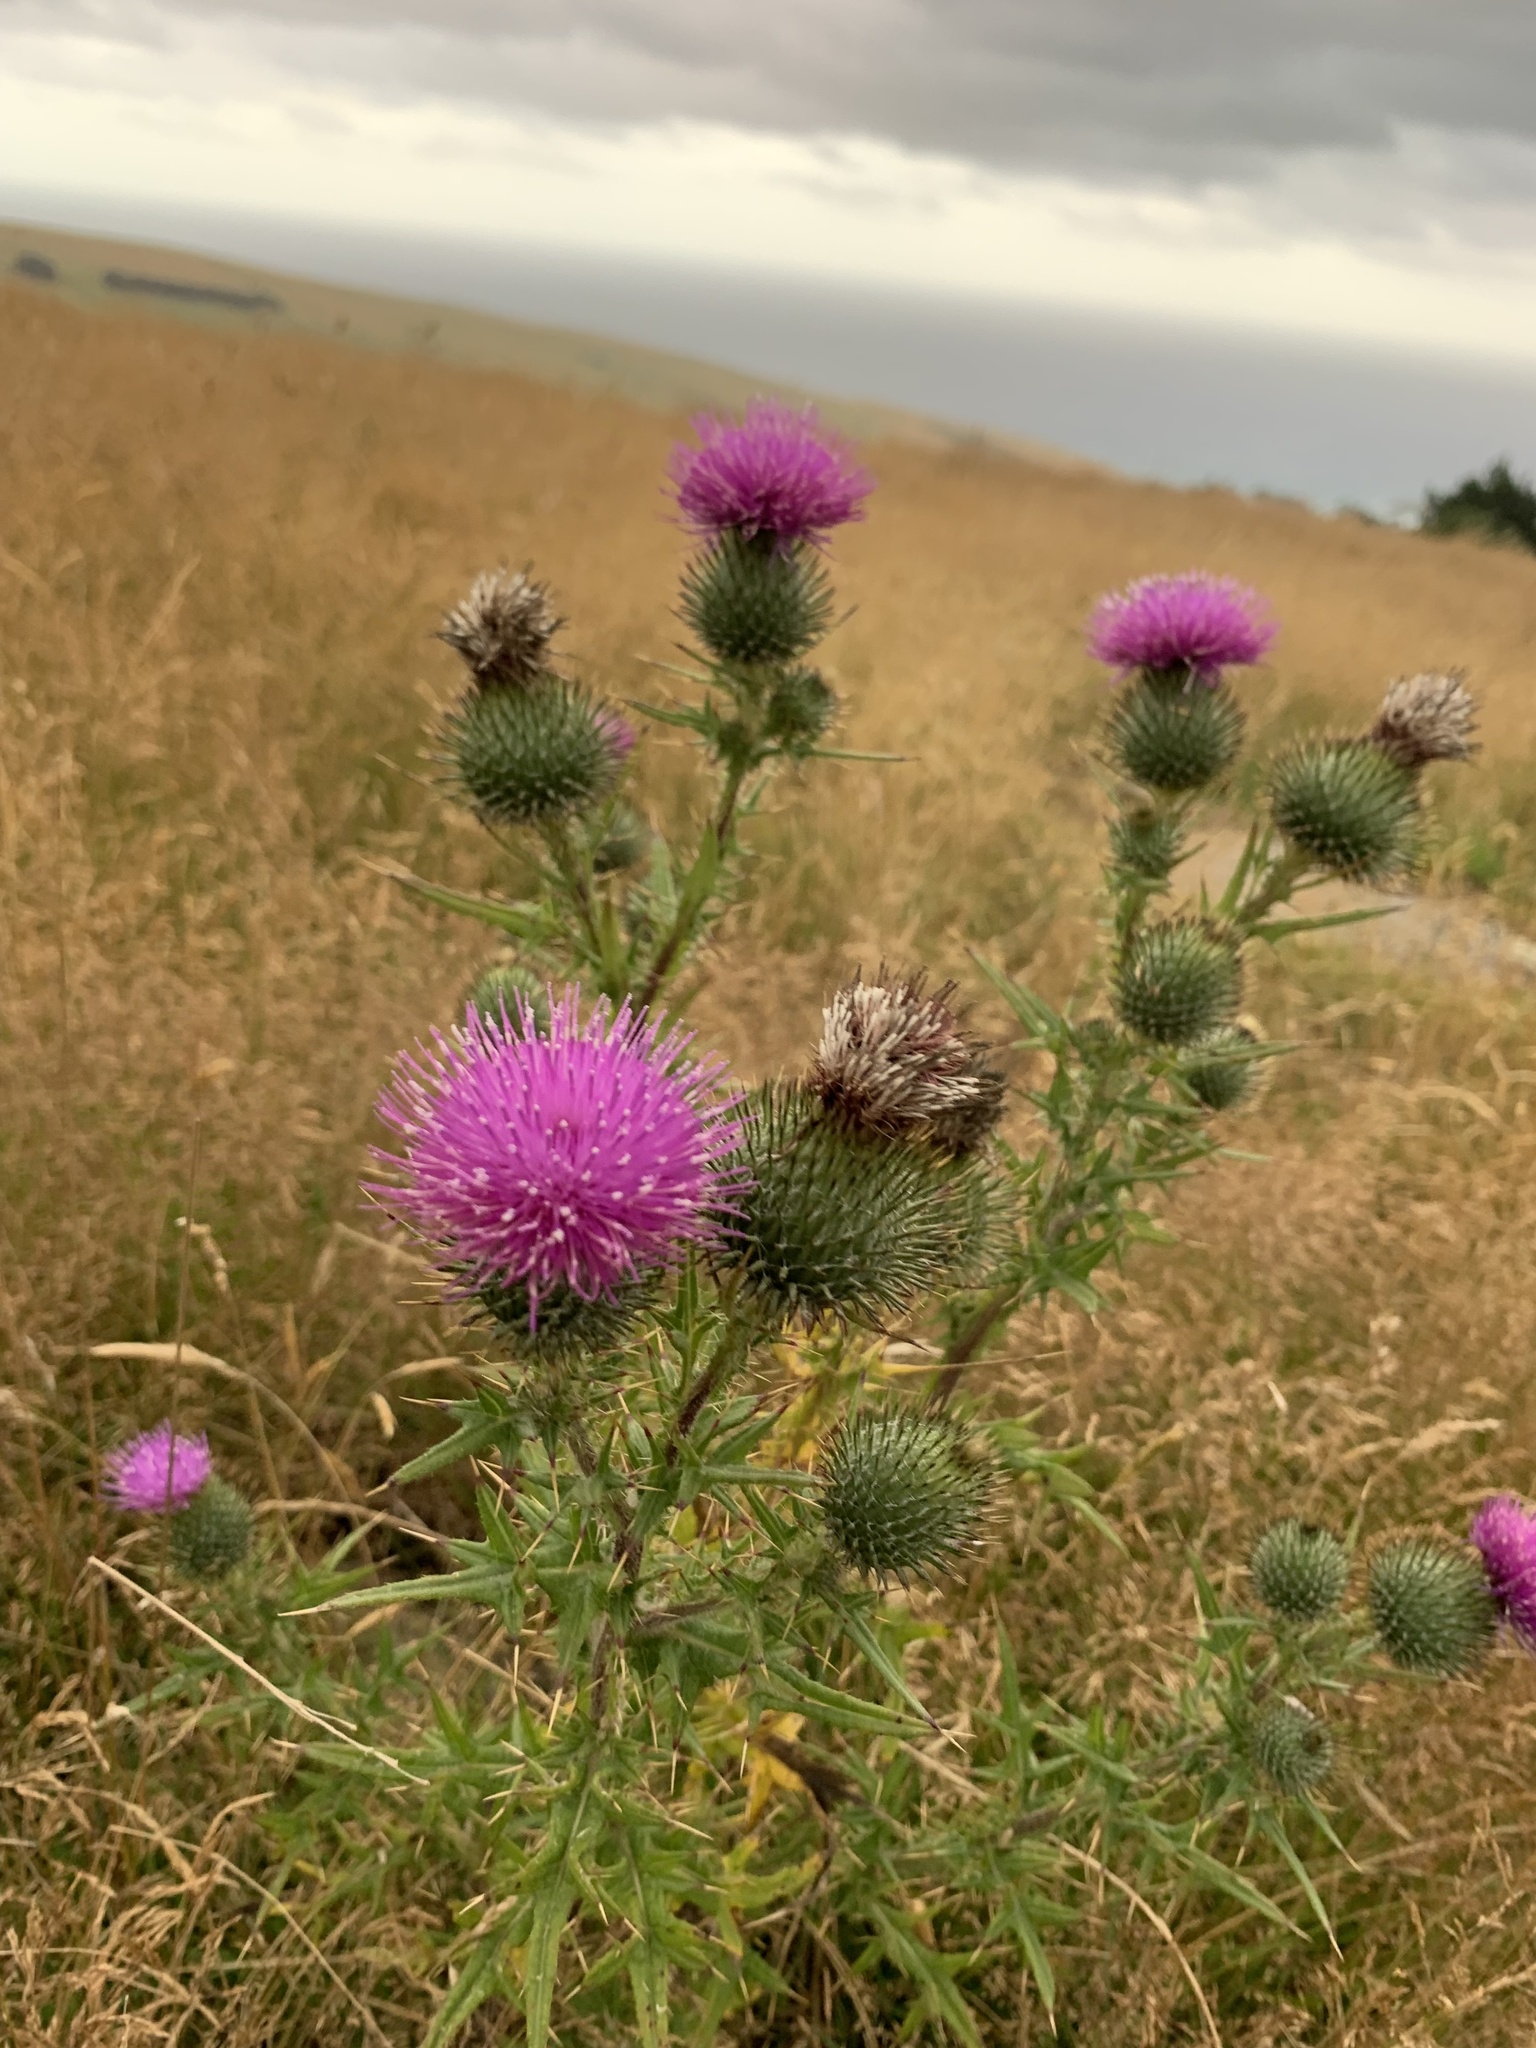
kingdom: Plantae
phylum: Tracheophyta
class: Magnoliopsida
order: Asterales
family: Asteraceae
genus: Cirsium
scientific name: Cirsium vulgare
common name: Bull thistle
